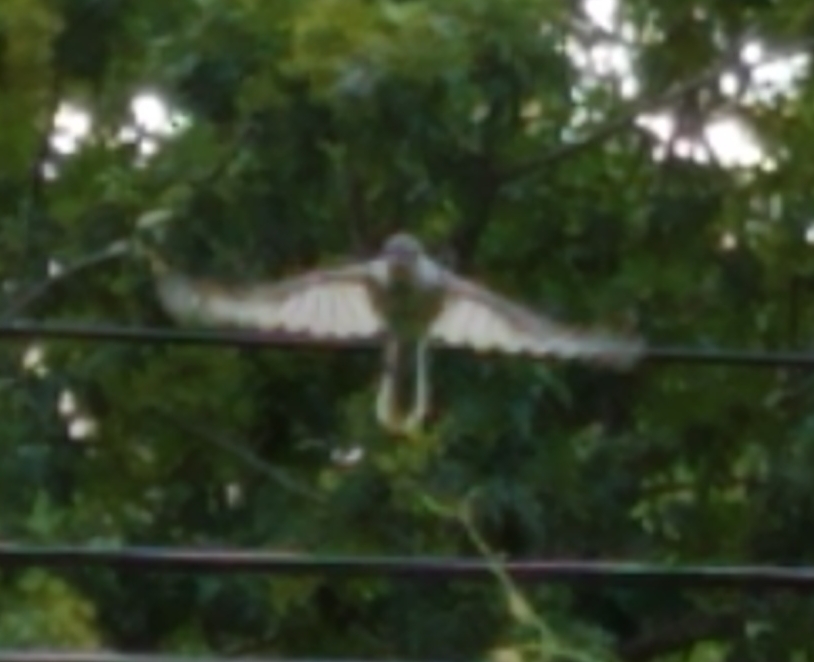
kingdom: Animalia
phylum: Chordata
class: Aves
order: Passeriformes
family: Paridae
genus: Baeolophus
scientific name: Baeolophus bicolor
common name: Tufted titmouse
